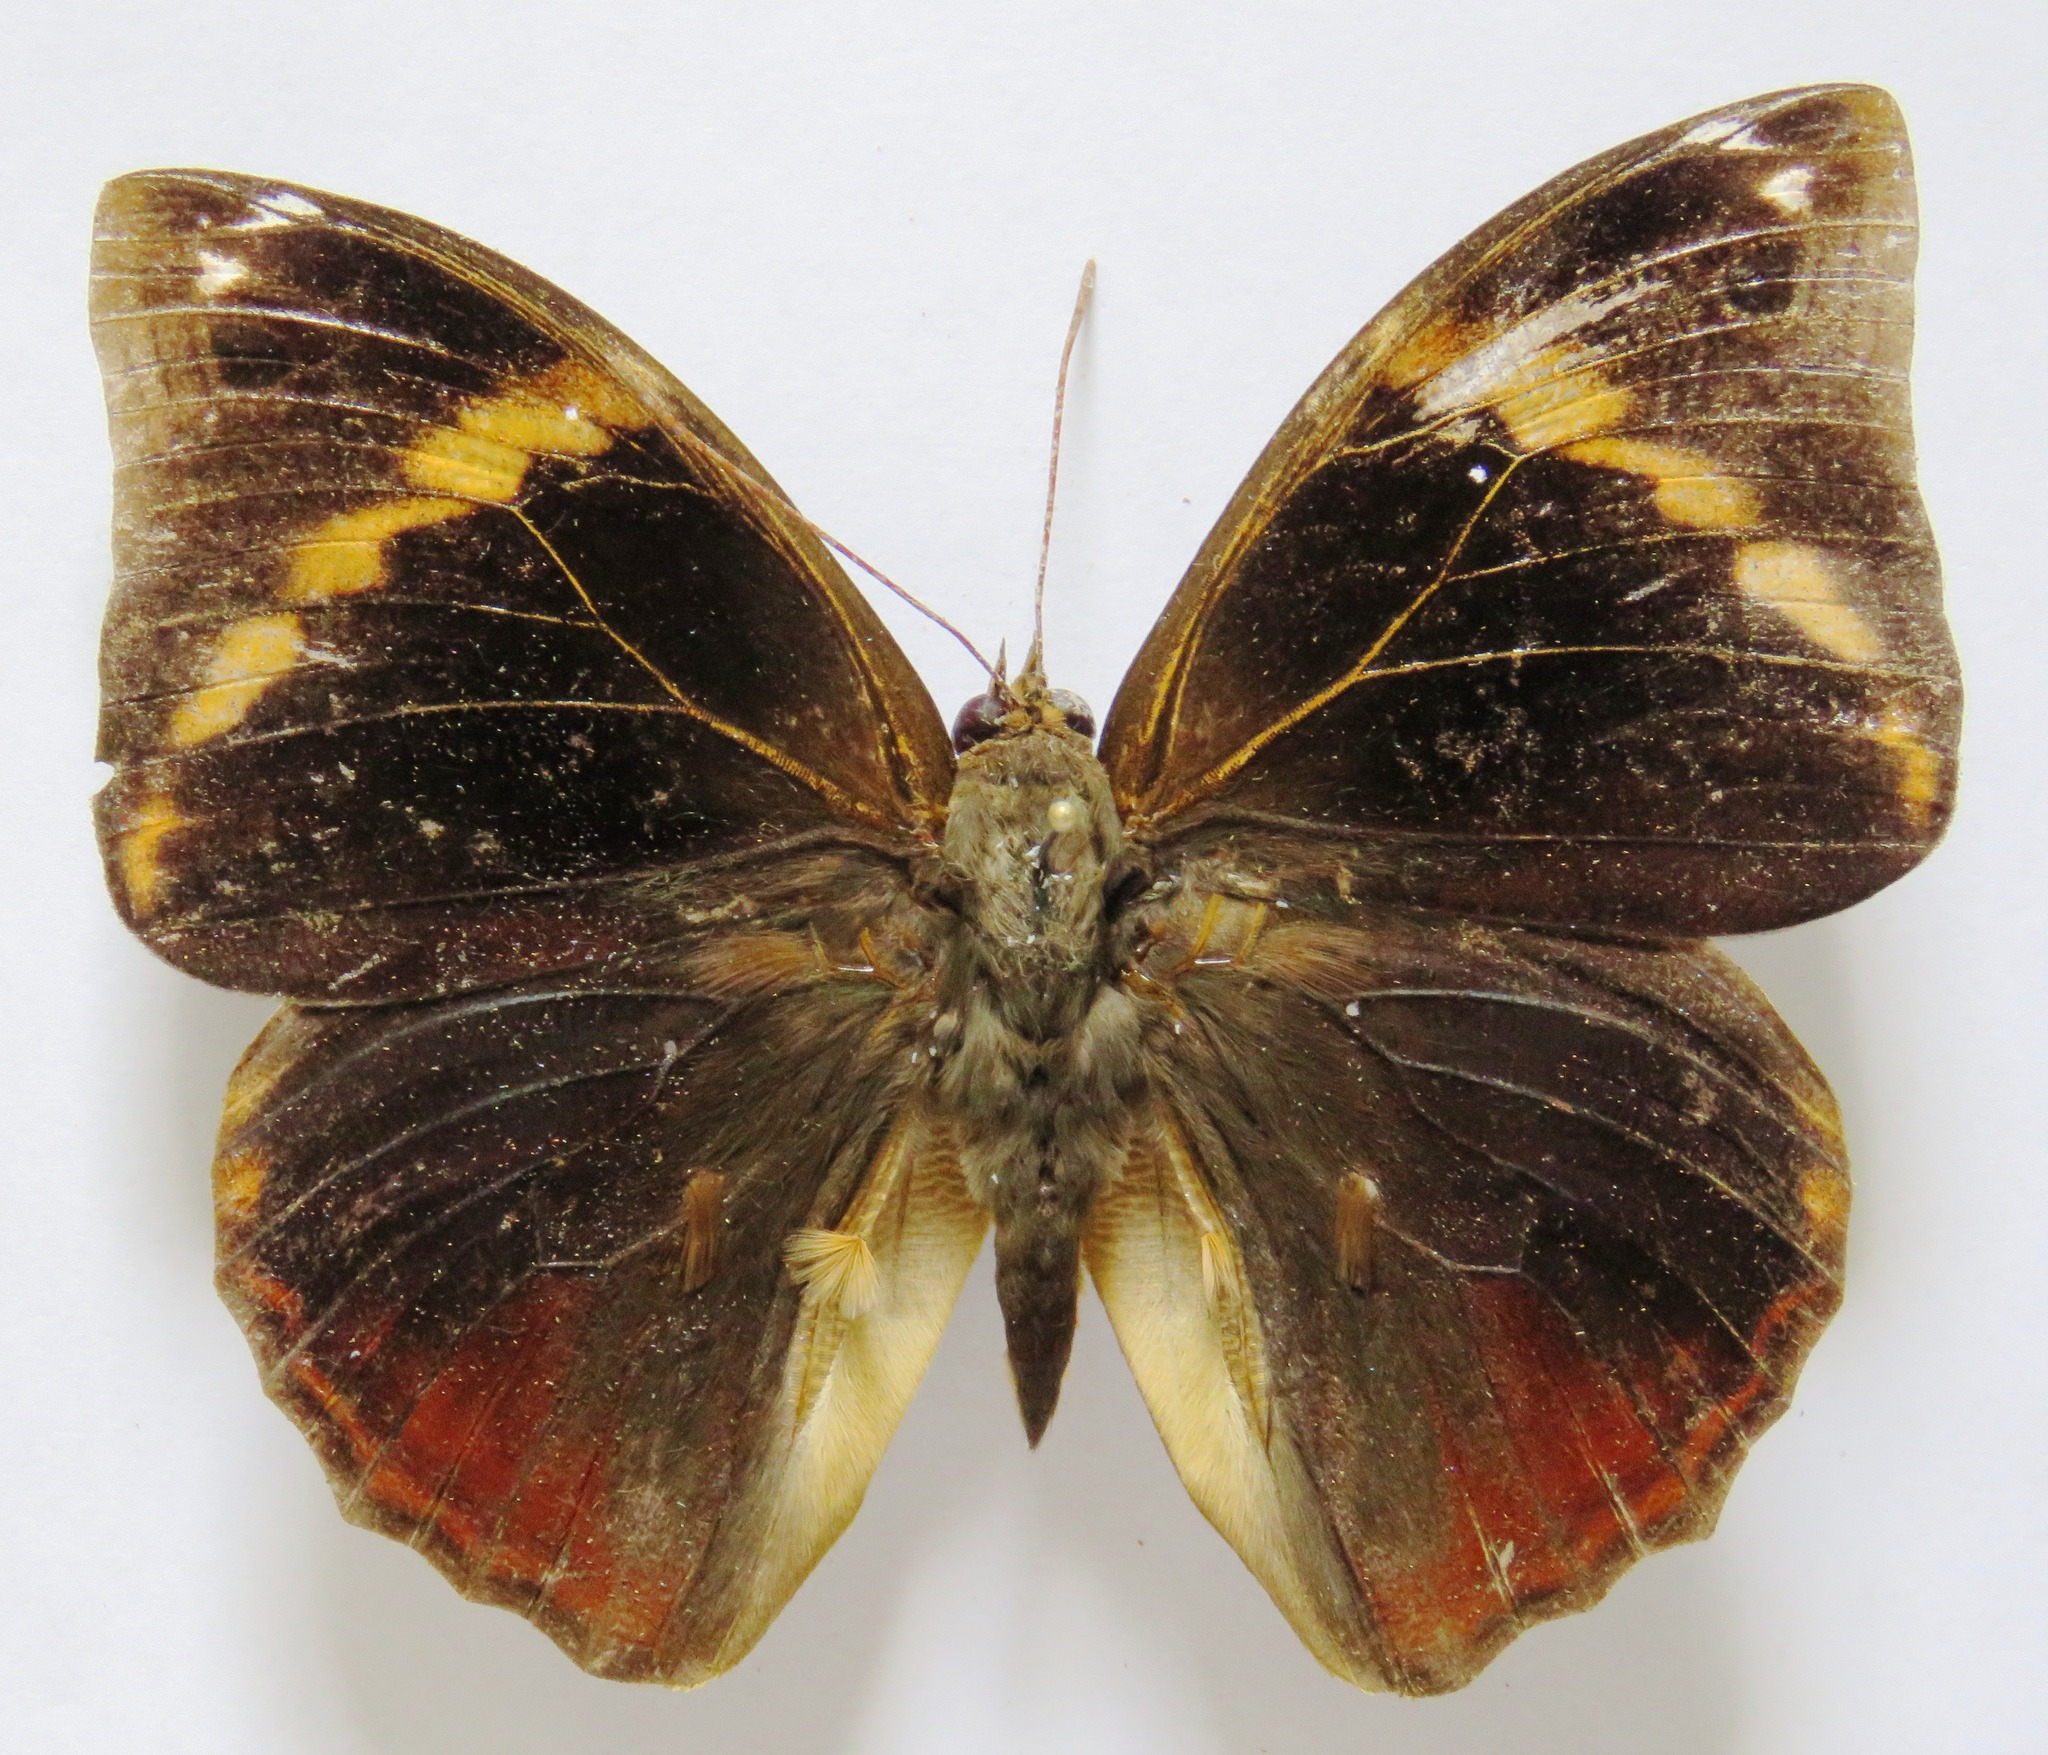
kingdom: Animalia
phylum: Arthropoda
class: Insecta
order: Lepidoptera
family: Nymphalidae
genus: Opsiphanes
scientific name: Opsiphanes cassiae
